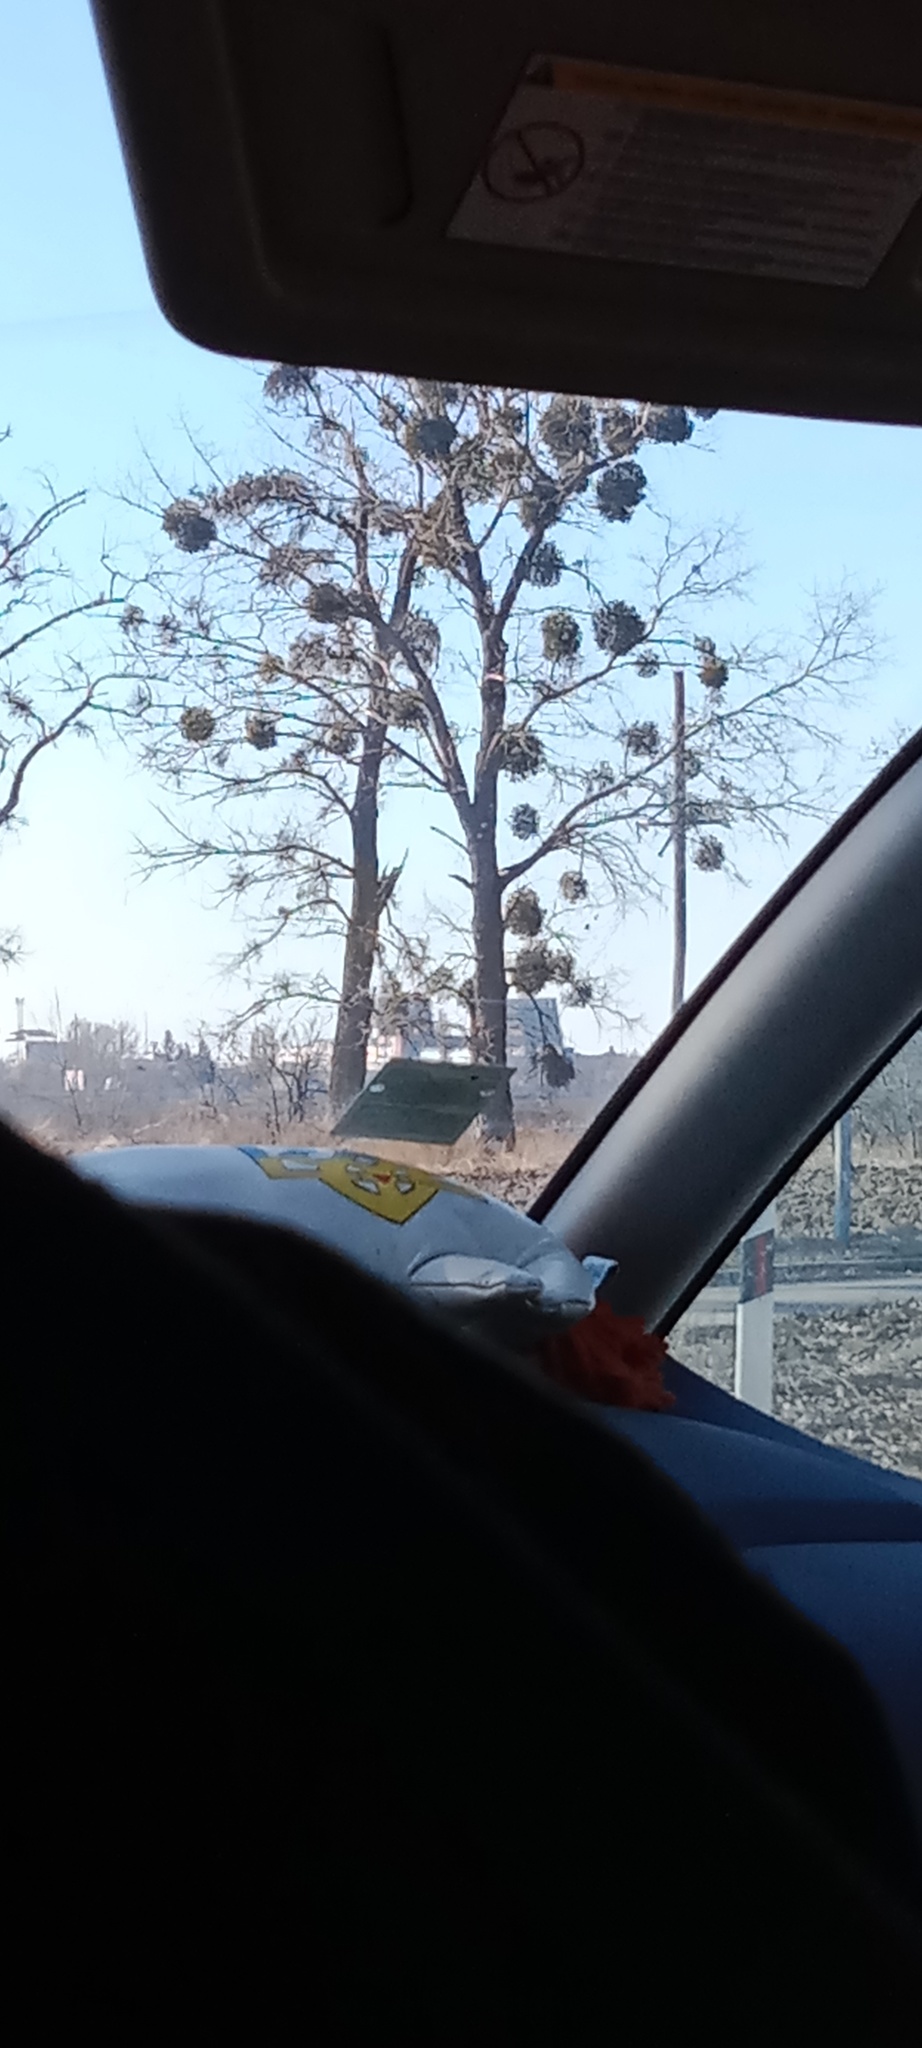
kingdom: Plantae
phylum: Tracheophyta
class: Magnoliopsida
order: Santalales
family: Viscaceae
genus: Viscum
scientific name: Viscum album
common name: Mistletoe
